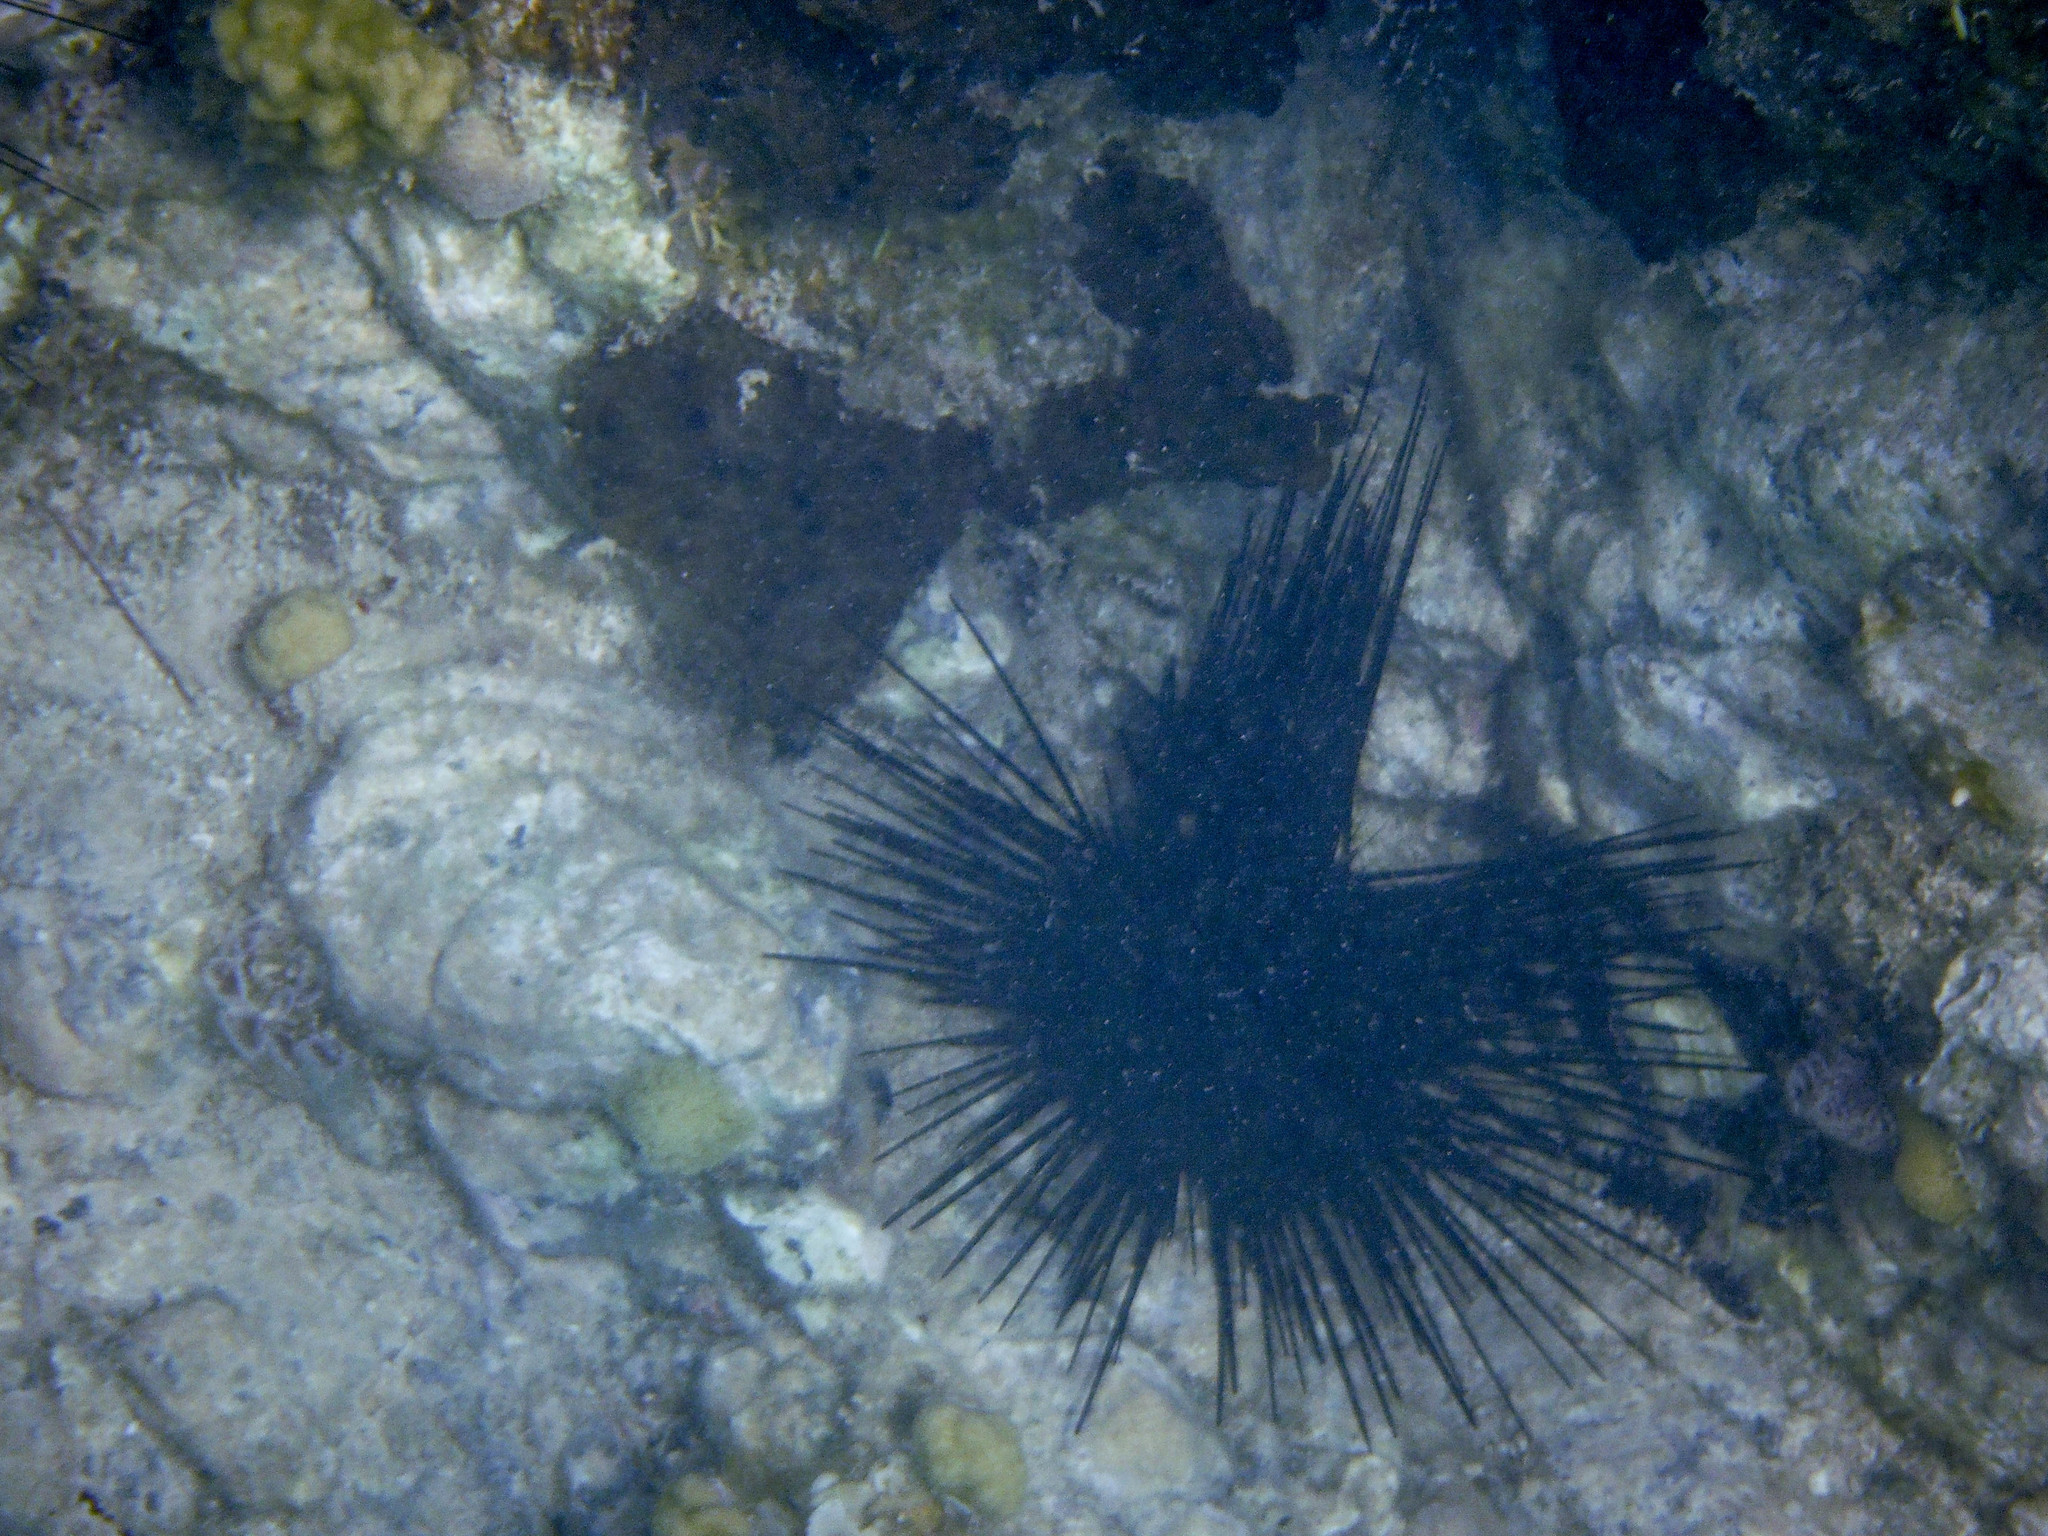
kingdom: Animalia
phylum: Cnidaria
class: Anthozoa
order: Scleractinia
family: Poritidae
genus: Porites
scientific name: Porites astreoides
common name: Mustard hill coral
